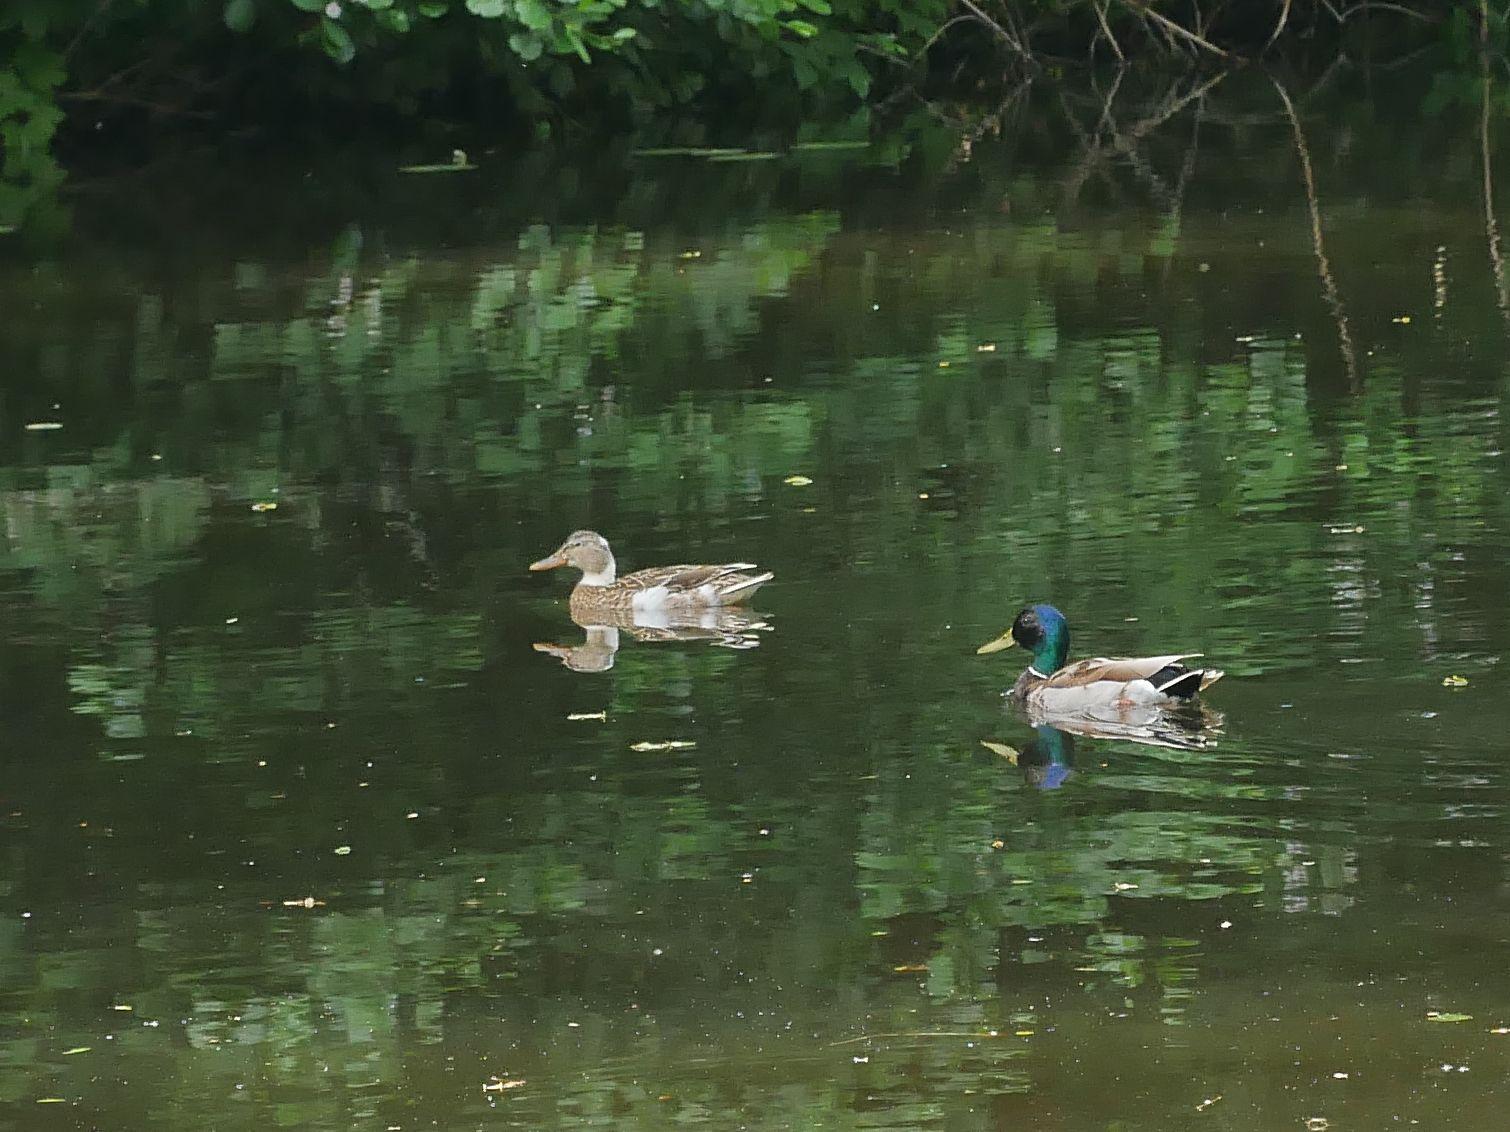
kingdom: Animalia
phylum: Chordata
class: Aves
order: Anseriformes
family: Anatidae
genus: Anas
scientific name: Anas platyrhynchos
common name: Mallard
